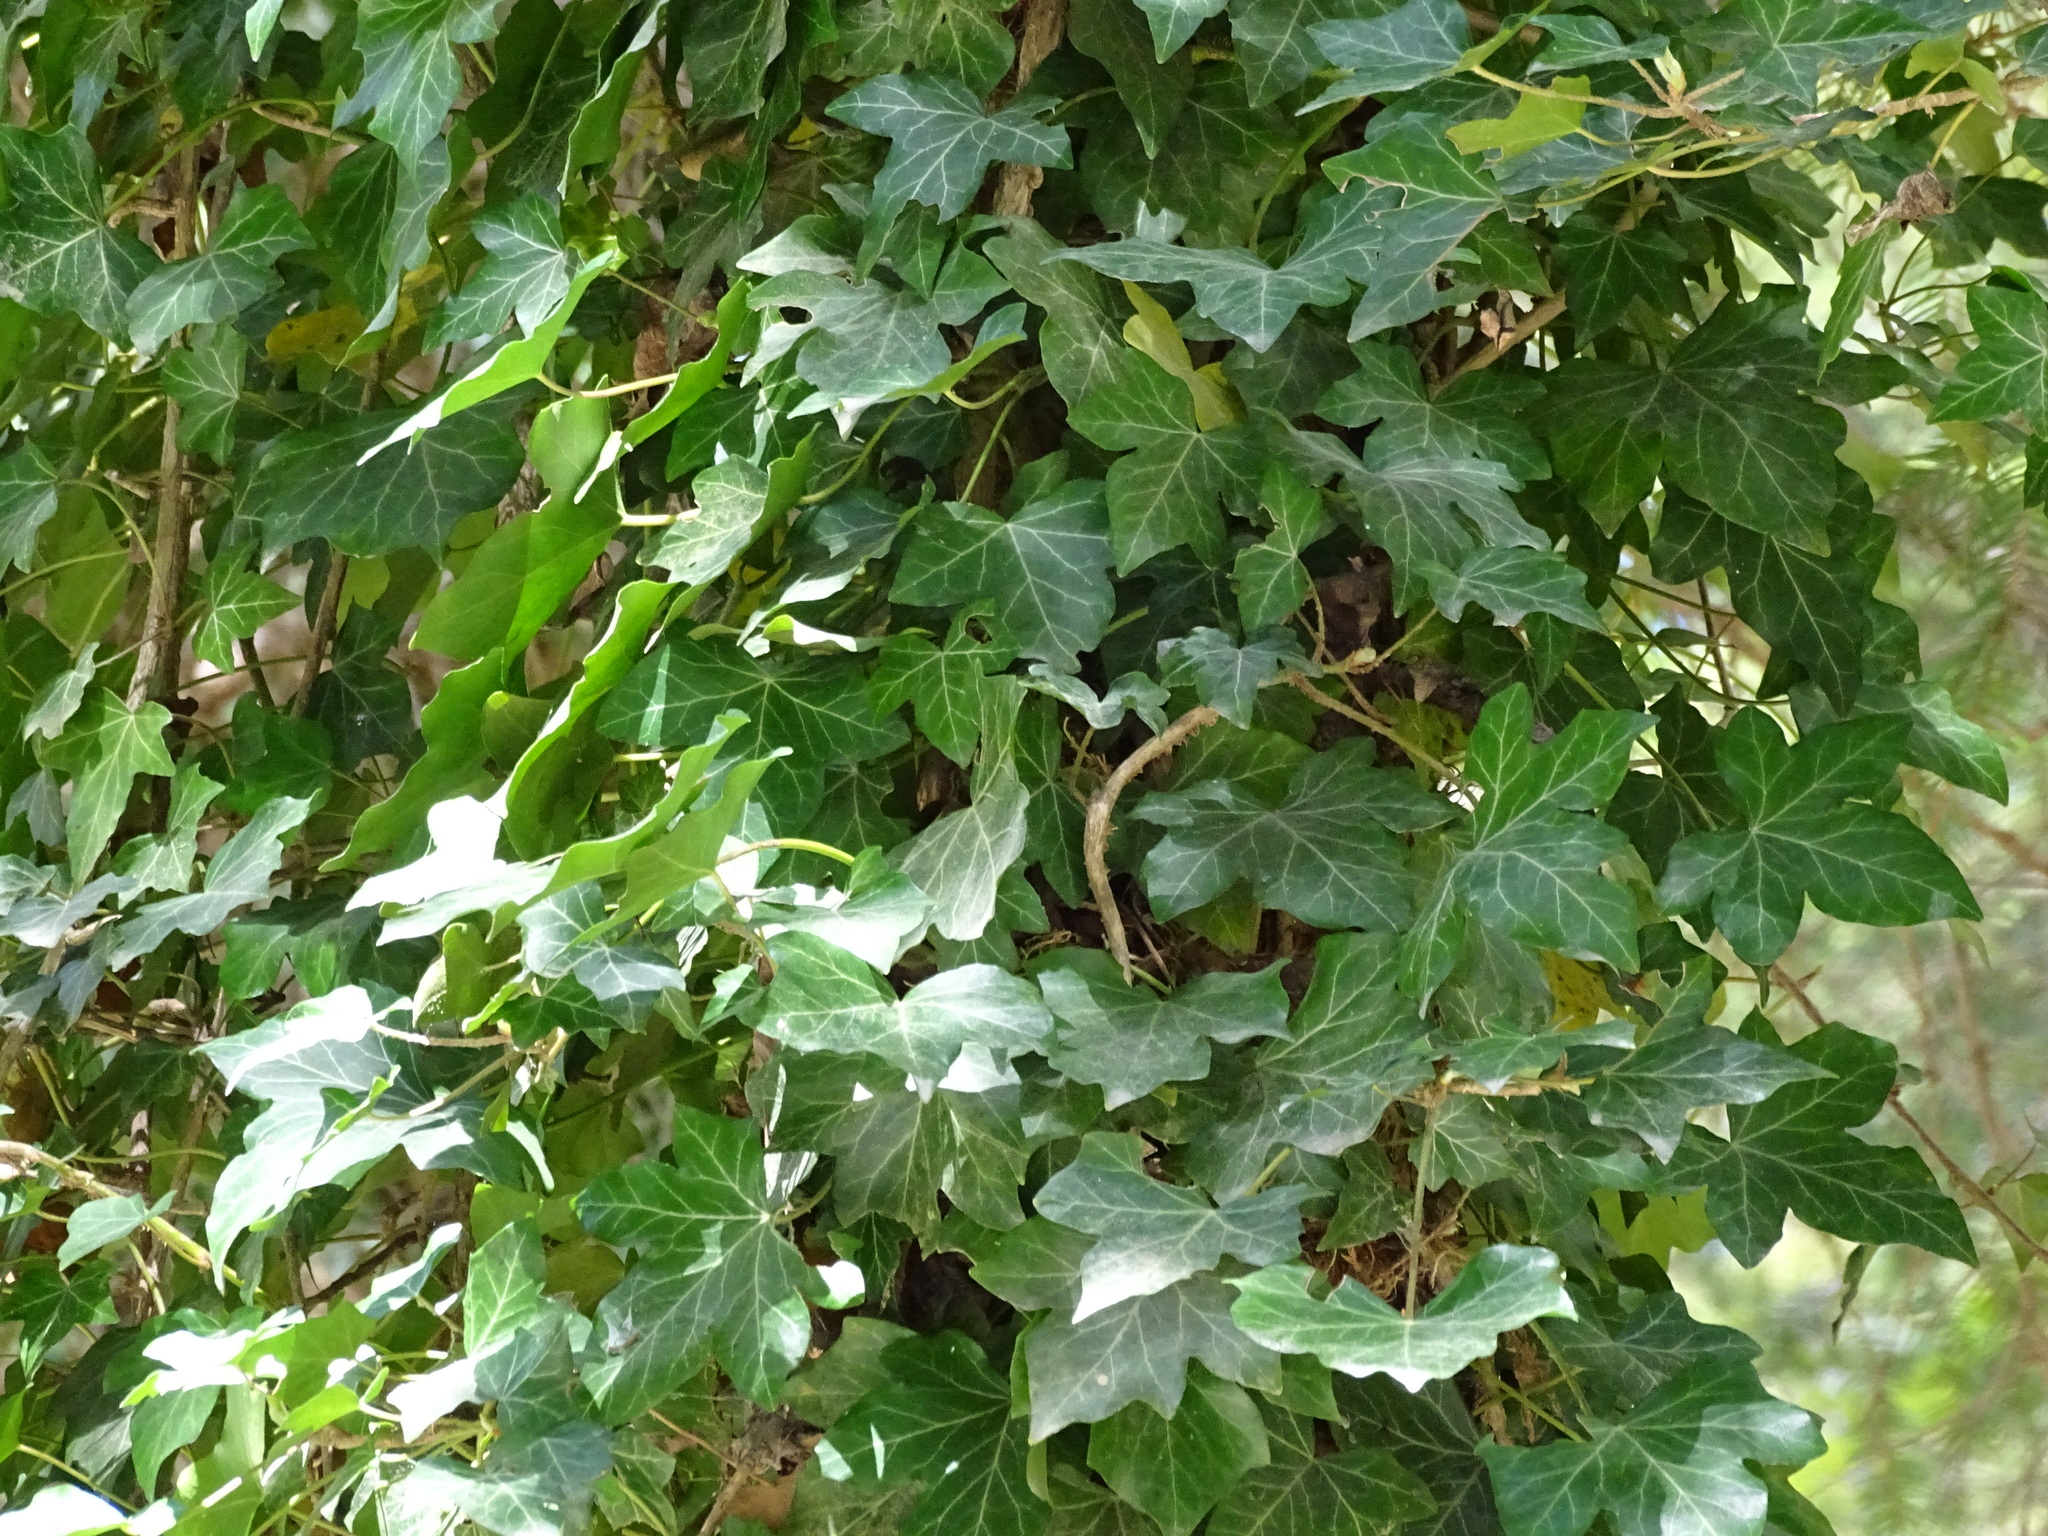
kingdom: Plantae
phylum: Tracheophyta
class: Magnoliopsida
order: Apiales
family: Araliaceae
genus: Hedera
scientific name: Hedera helix
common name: Ivy
